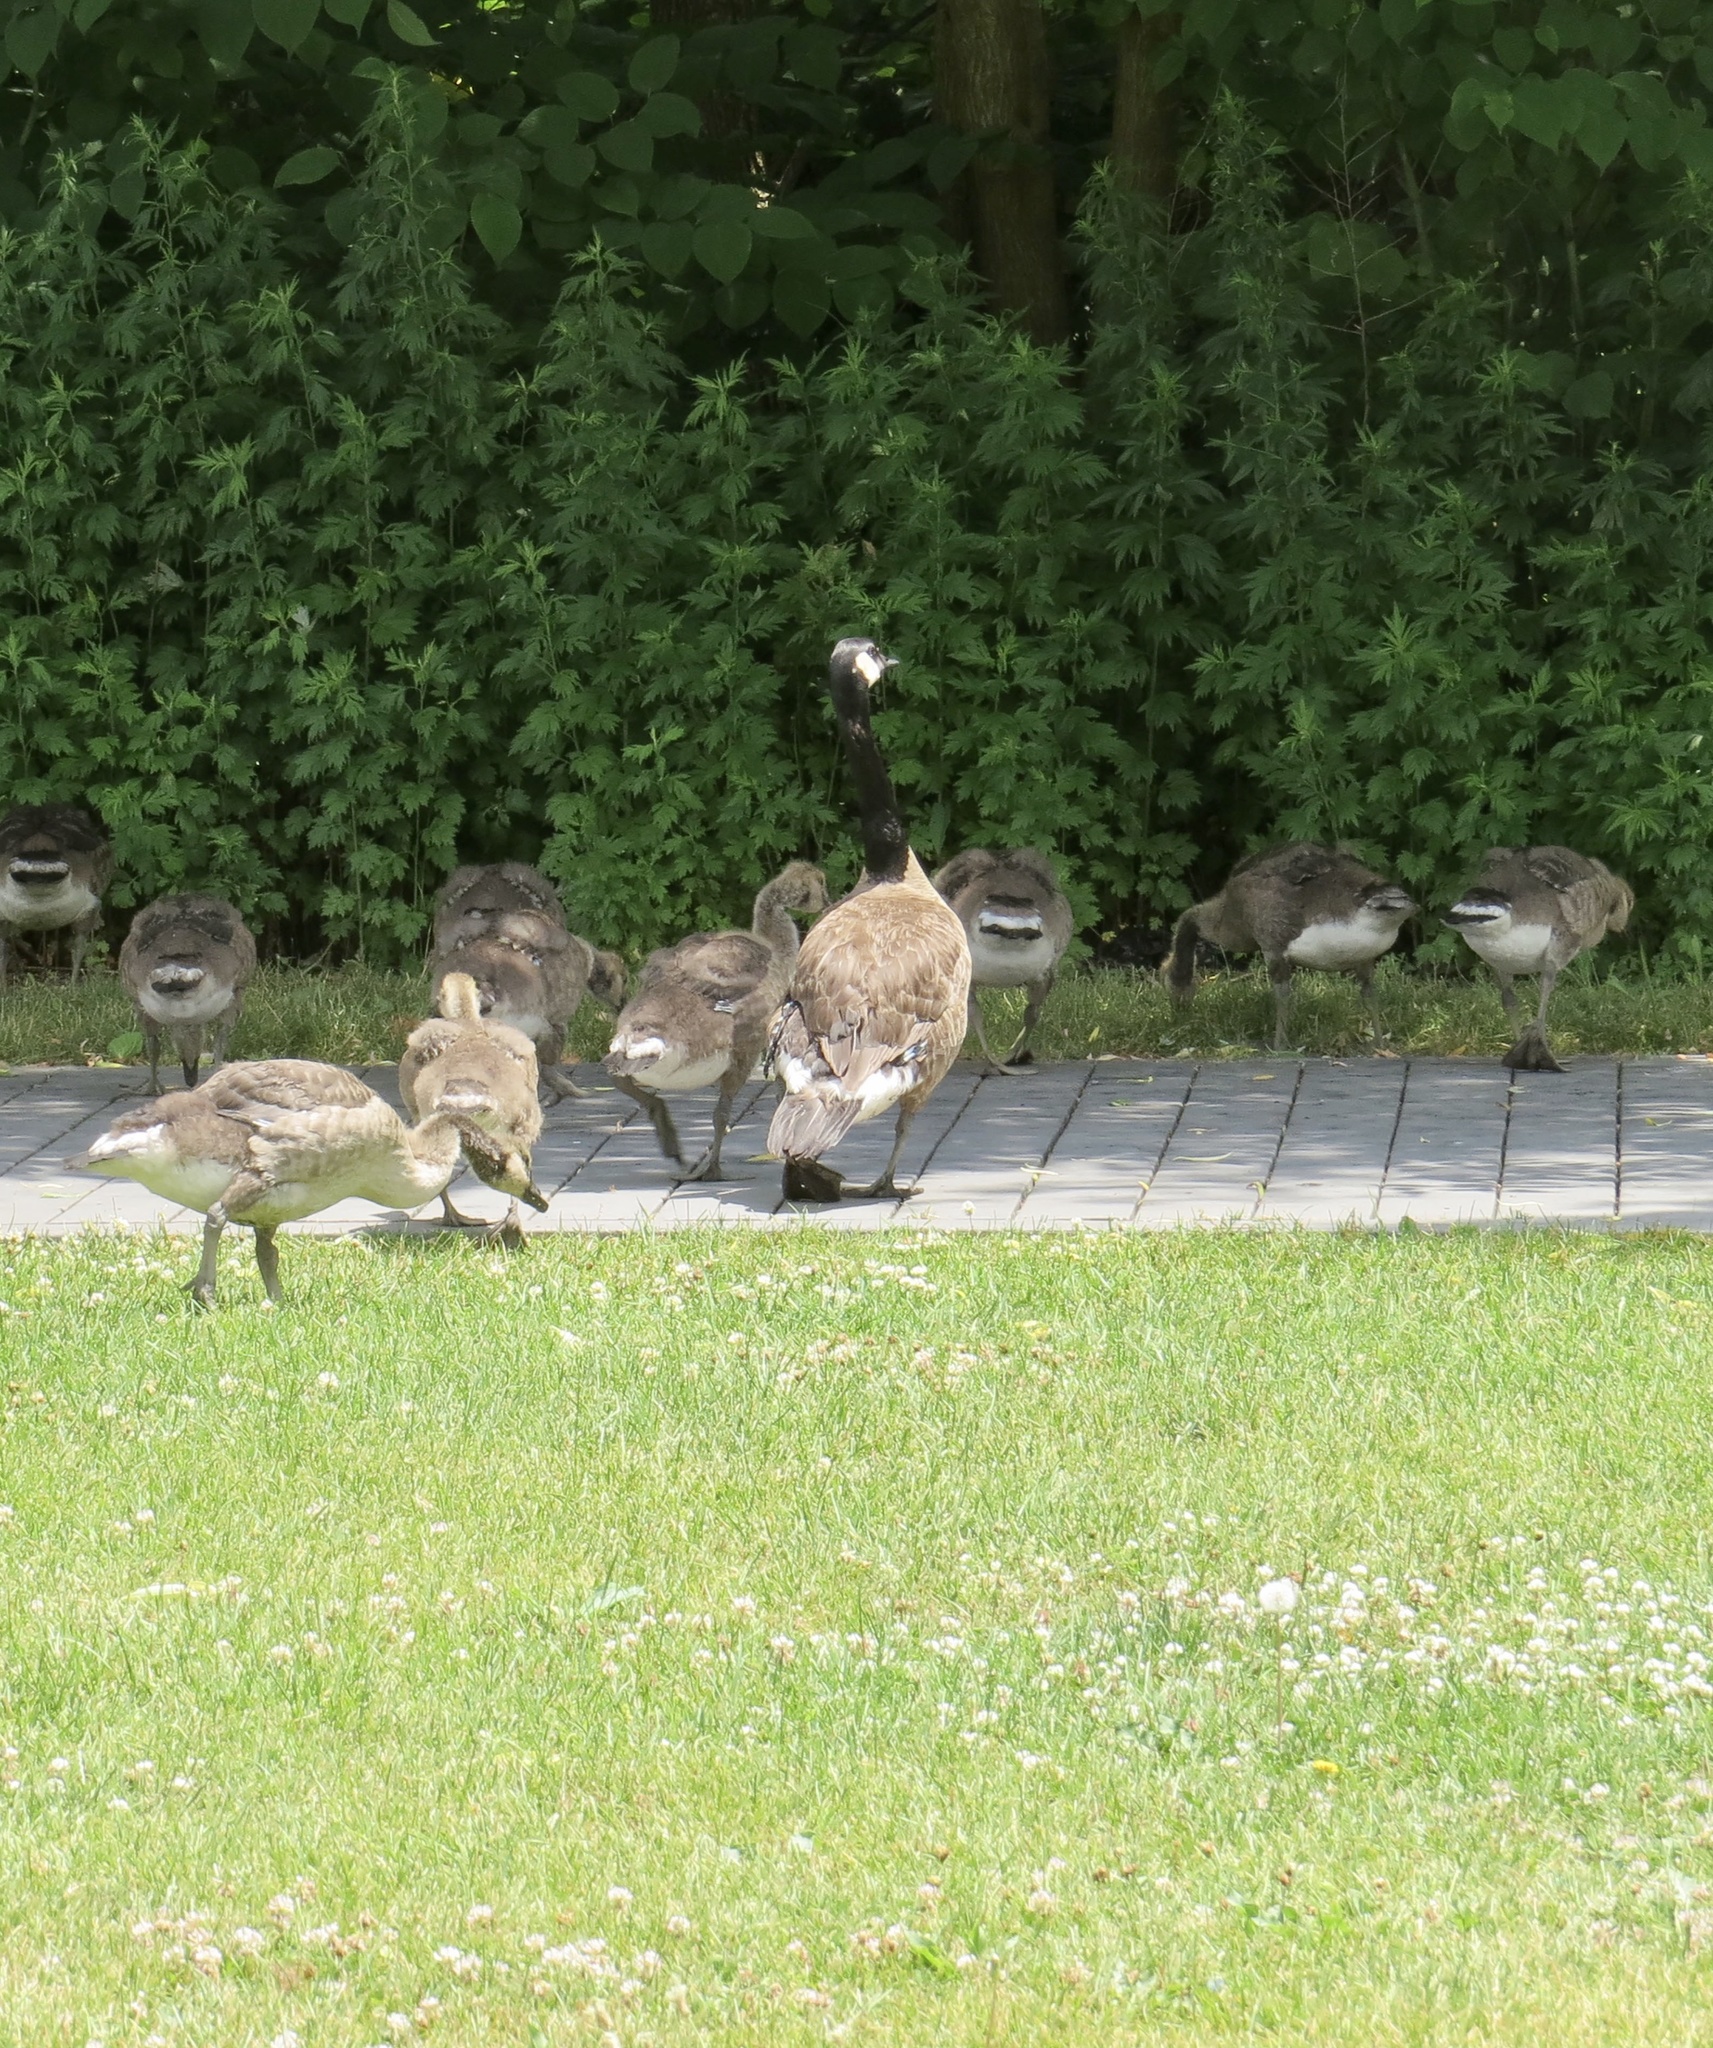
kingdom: Animalia
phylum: Chordata
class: Aves
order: Anseriformes
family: Anatidae
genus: Branta
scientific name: Branta canadensis
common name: Canada goose
